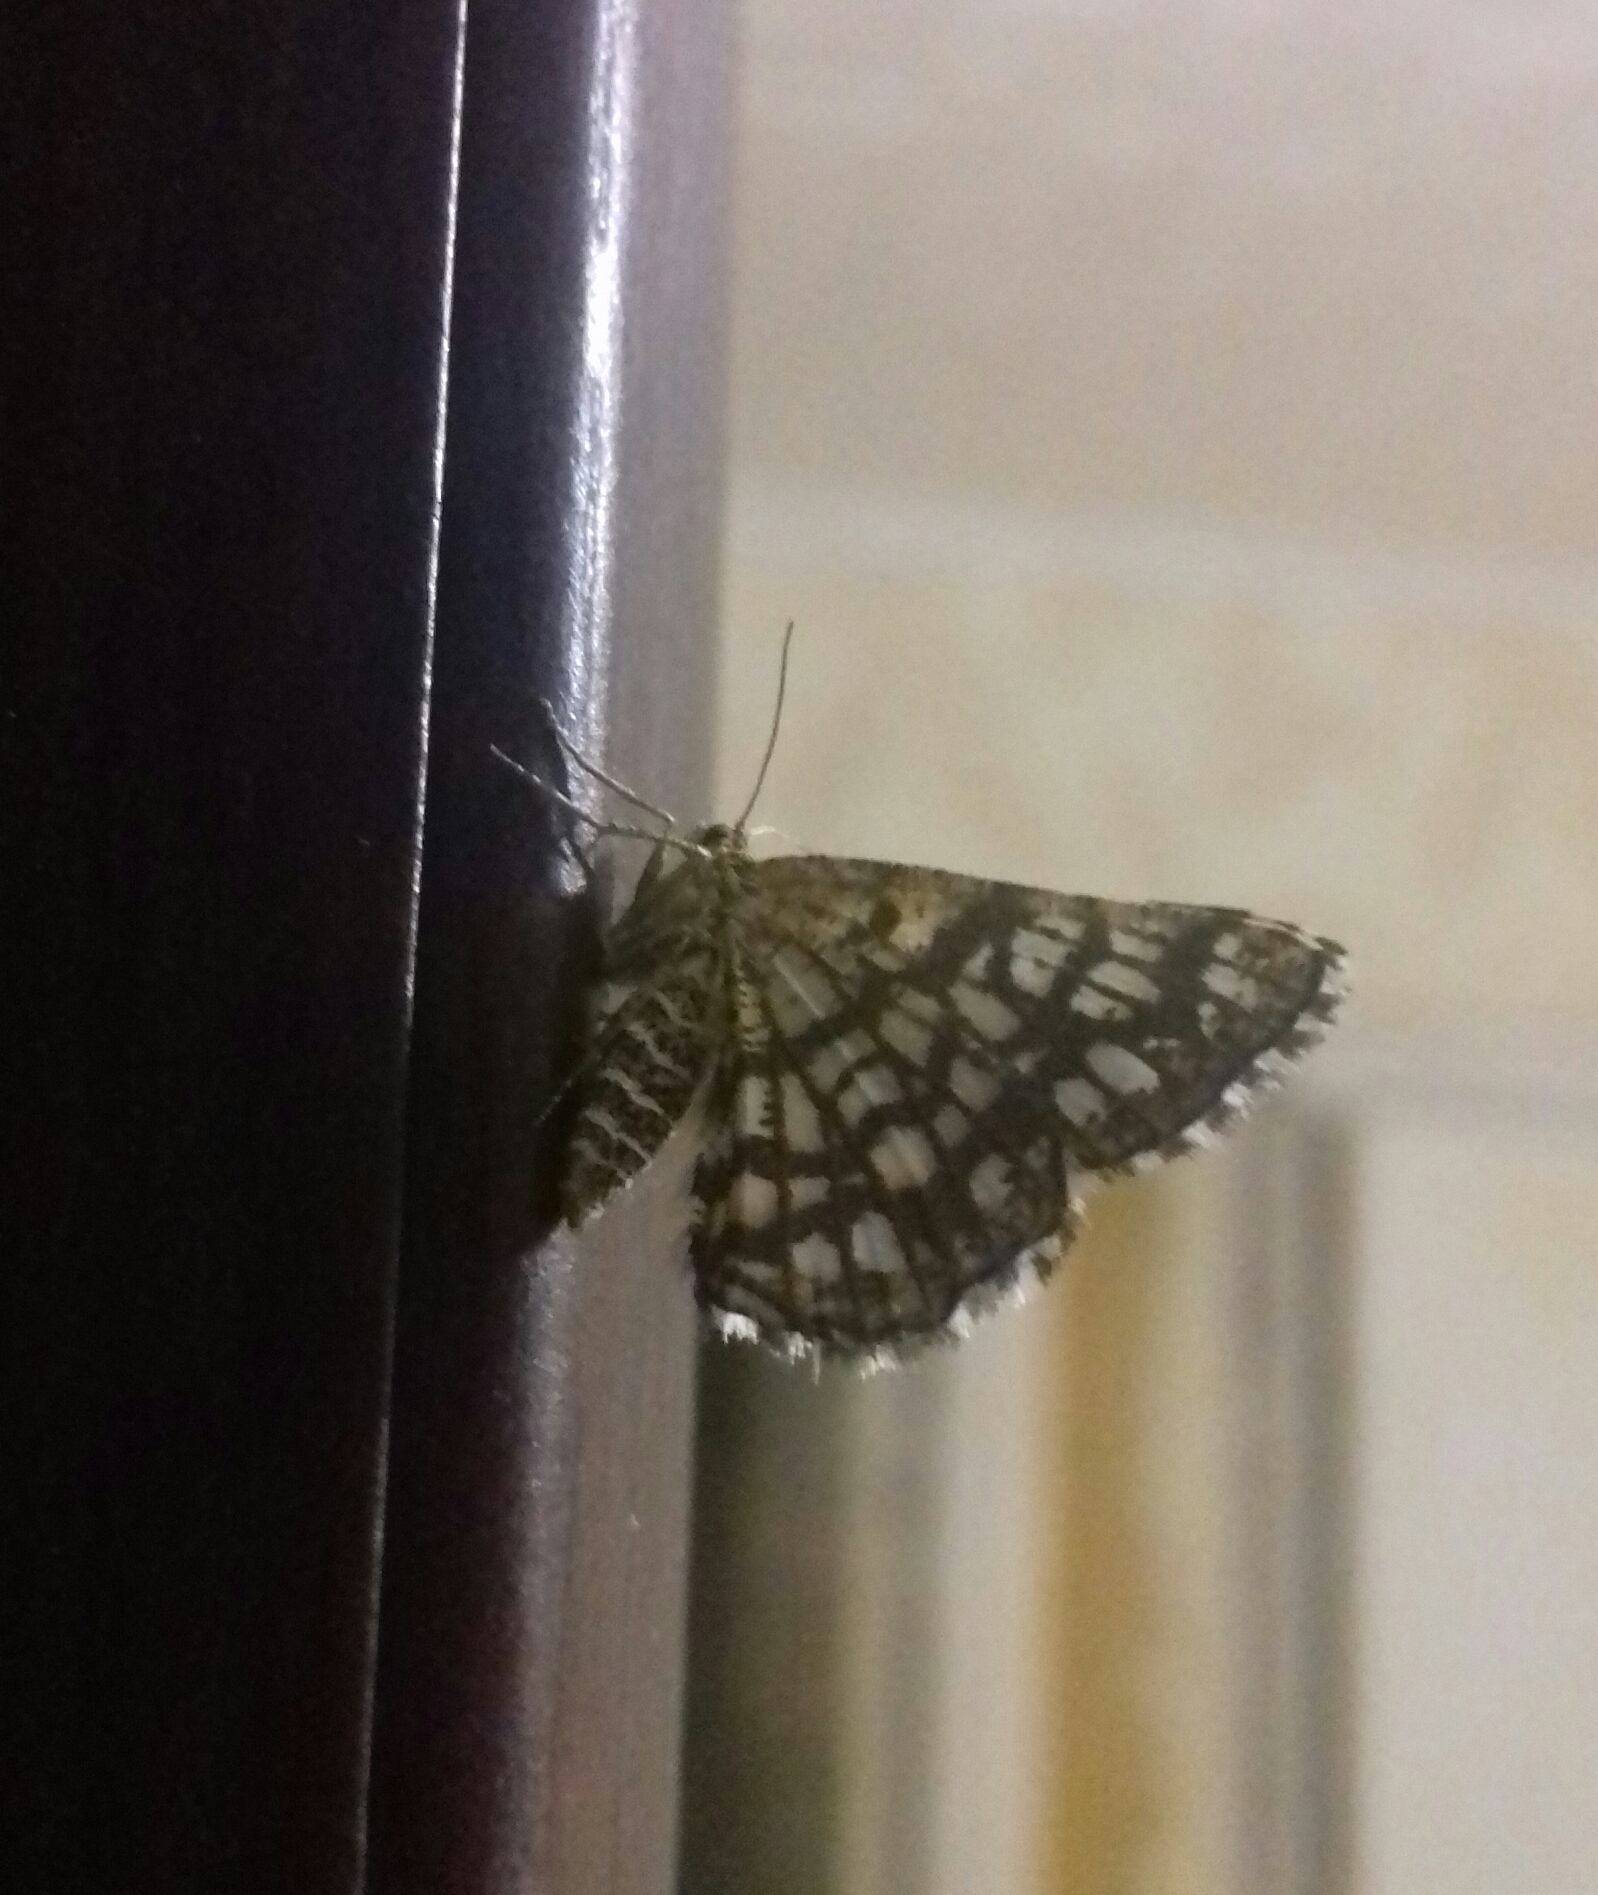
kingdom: Animalia
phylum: Arthropoda
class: Insecta
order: Lepidoptera
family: Geometridae
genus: Chiasmia
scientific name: Chiasmia clathrata
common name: Latticed heath
